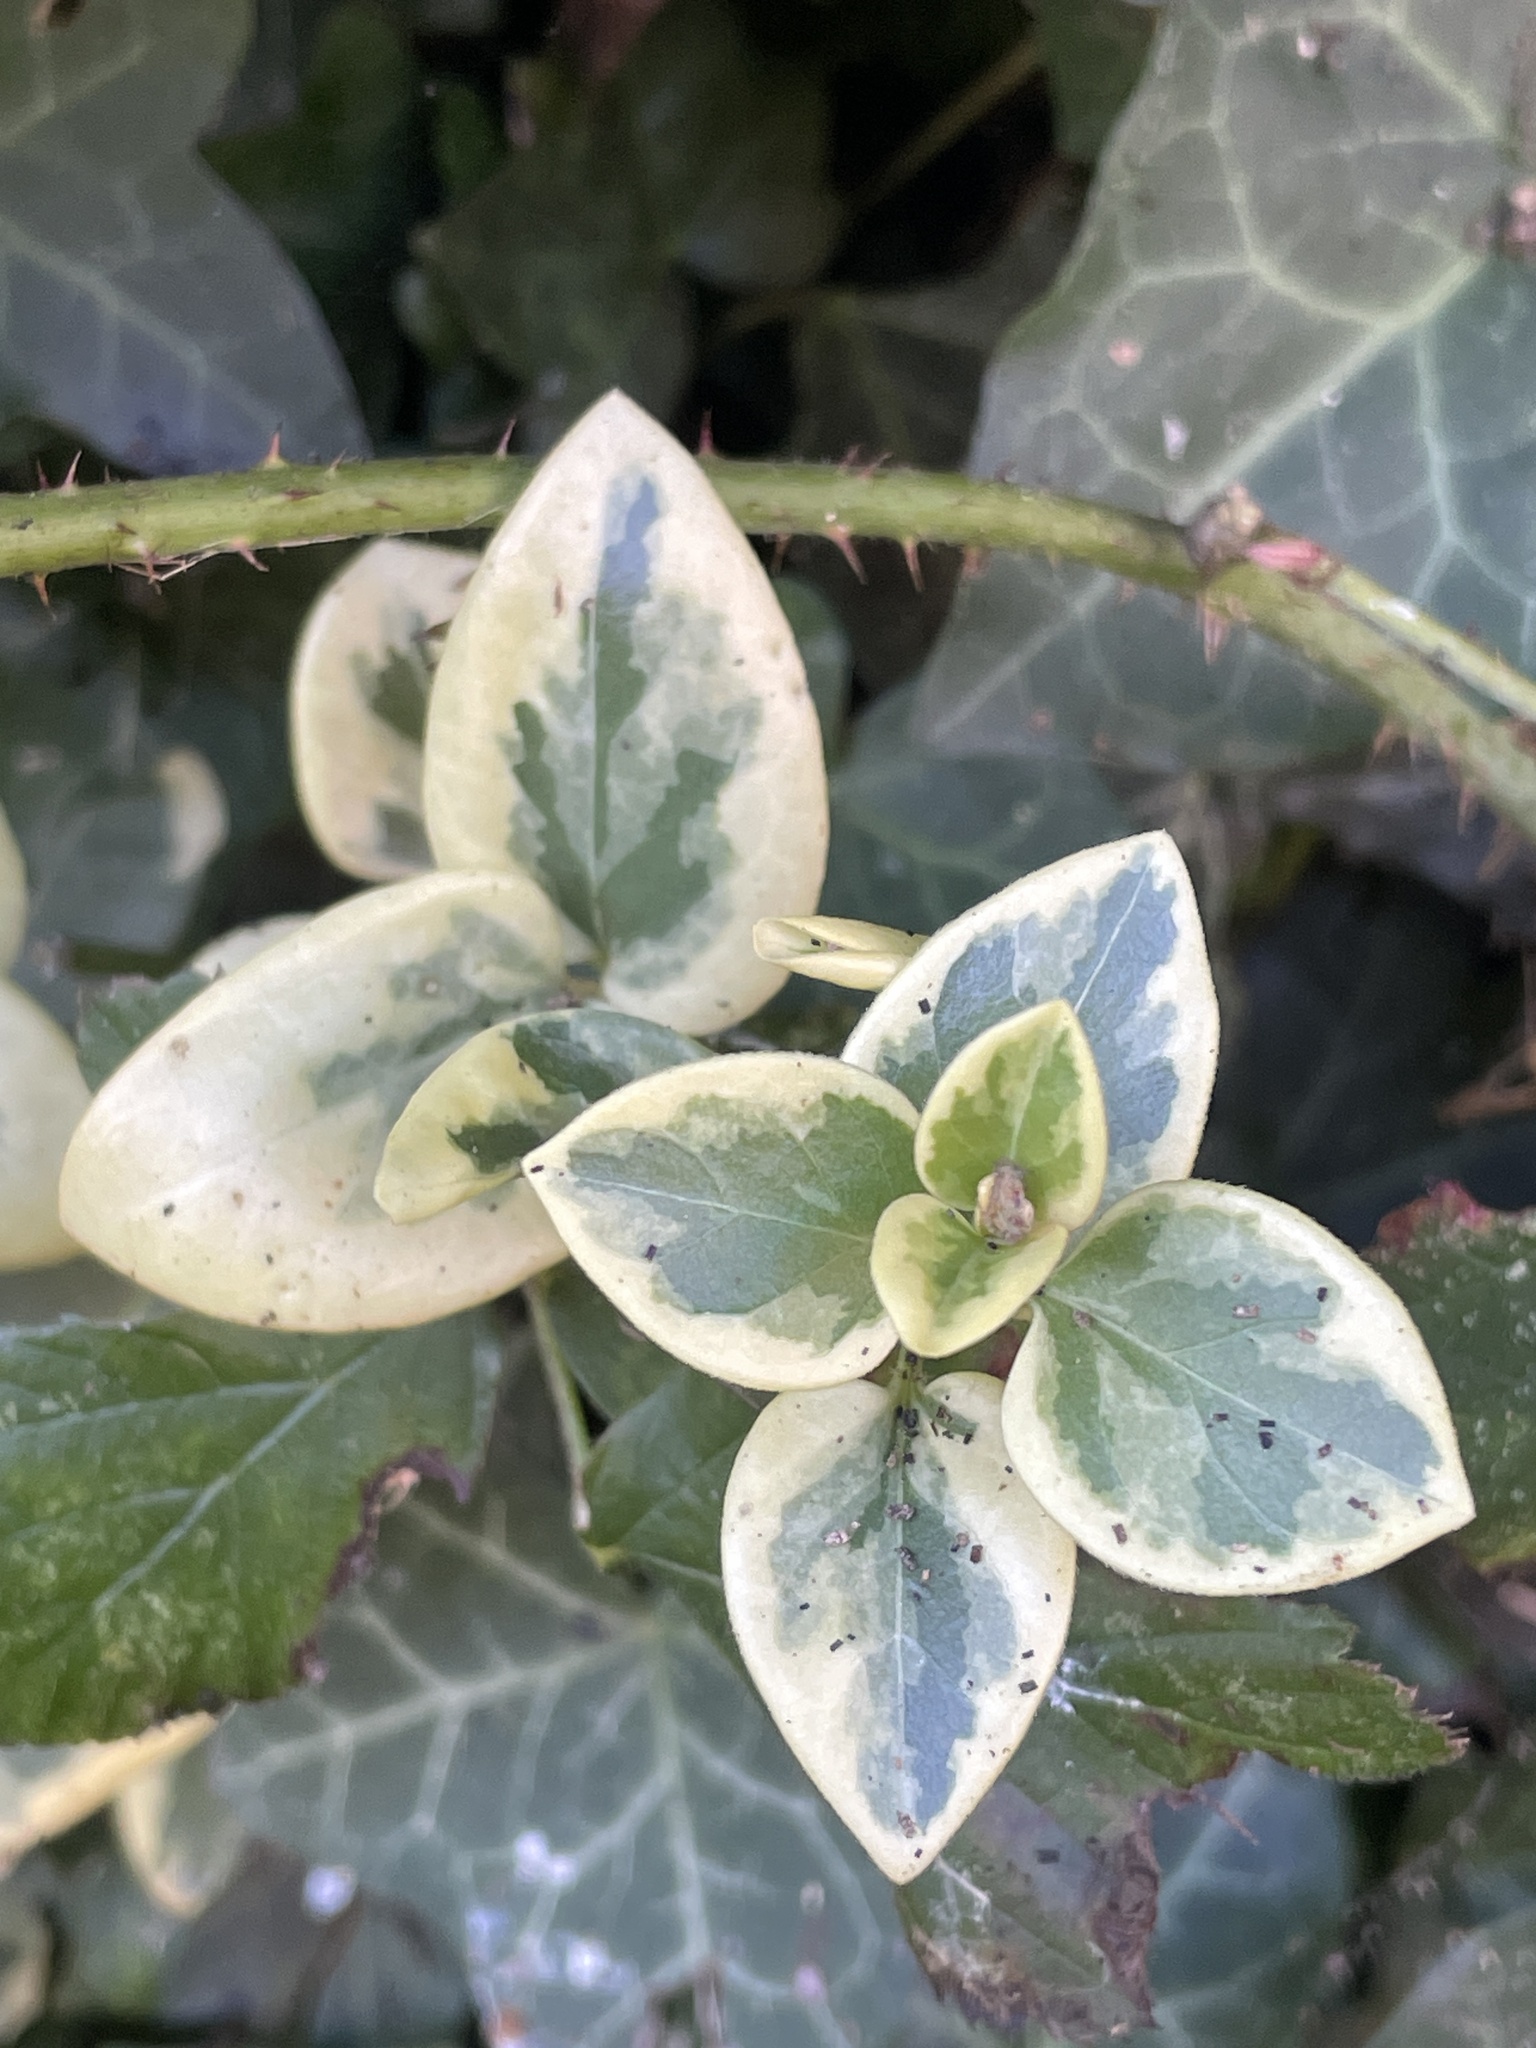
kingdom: Plantae
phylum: Tracheophyta
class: Magnoliopsida
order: Gentianales
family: Apocynaceae
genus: Vinca
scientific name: Vinca major
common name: Greater periwinkle
